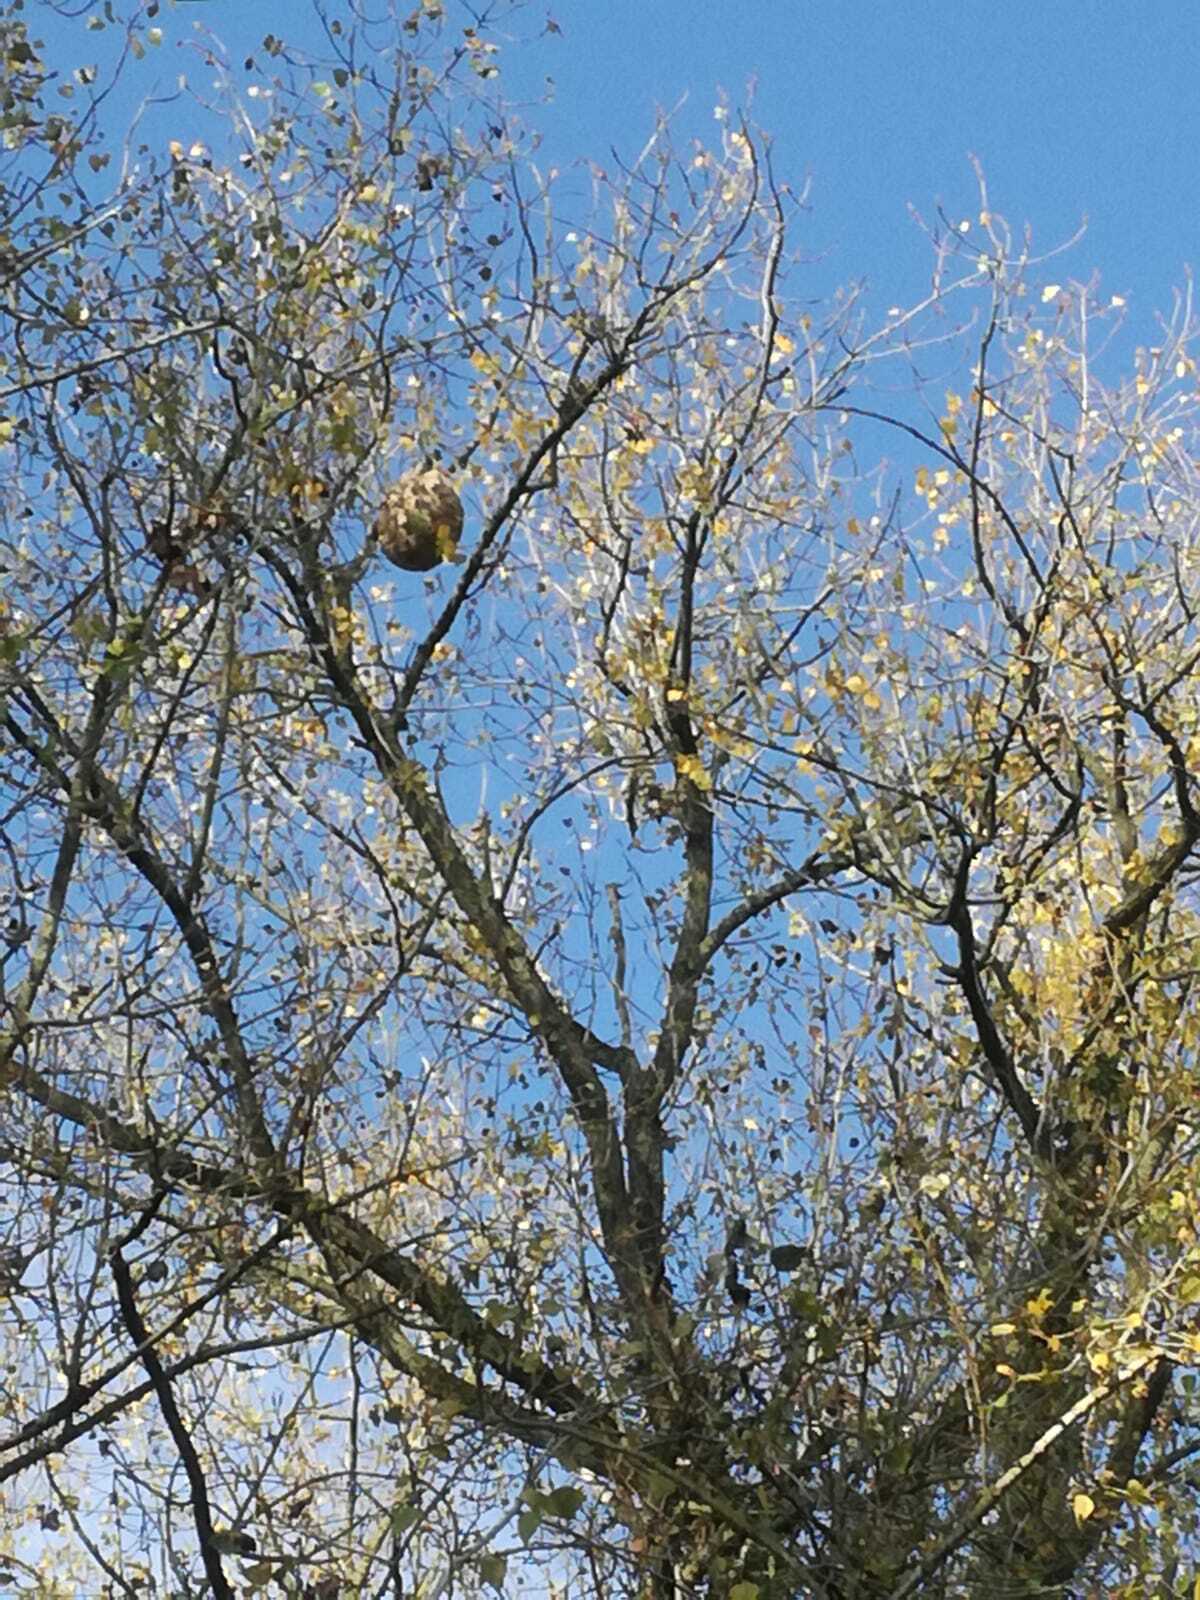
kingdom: Animalia
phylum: Arthropoda
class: Insecta
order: Hymenoptera
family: Vespidae
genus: Vespa
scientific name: Vespa velutina
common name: Asian hornet
